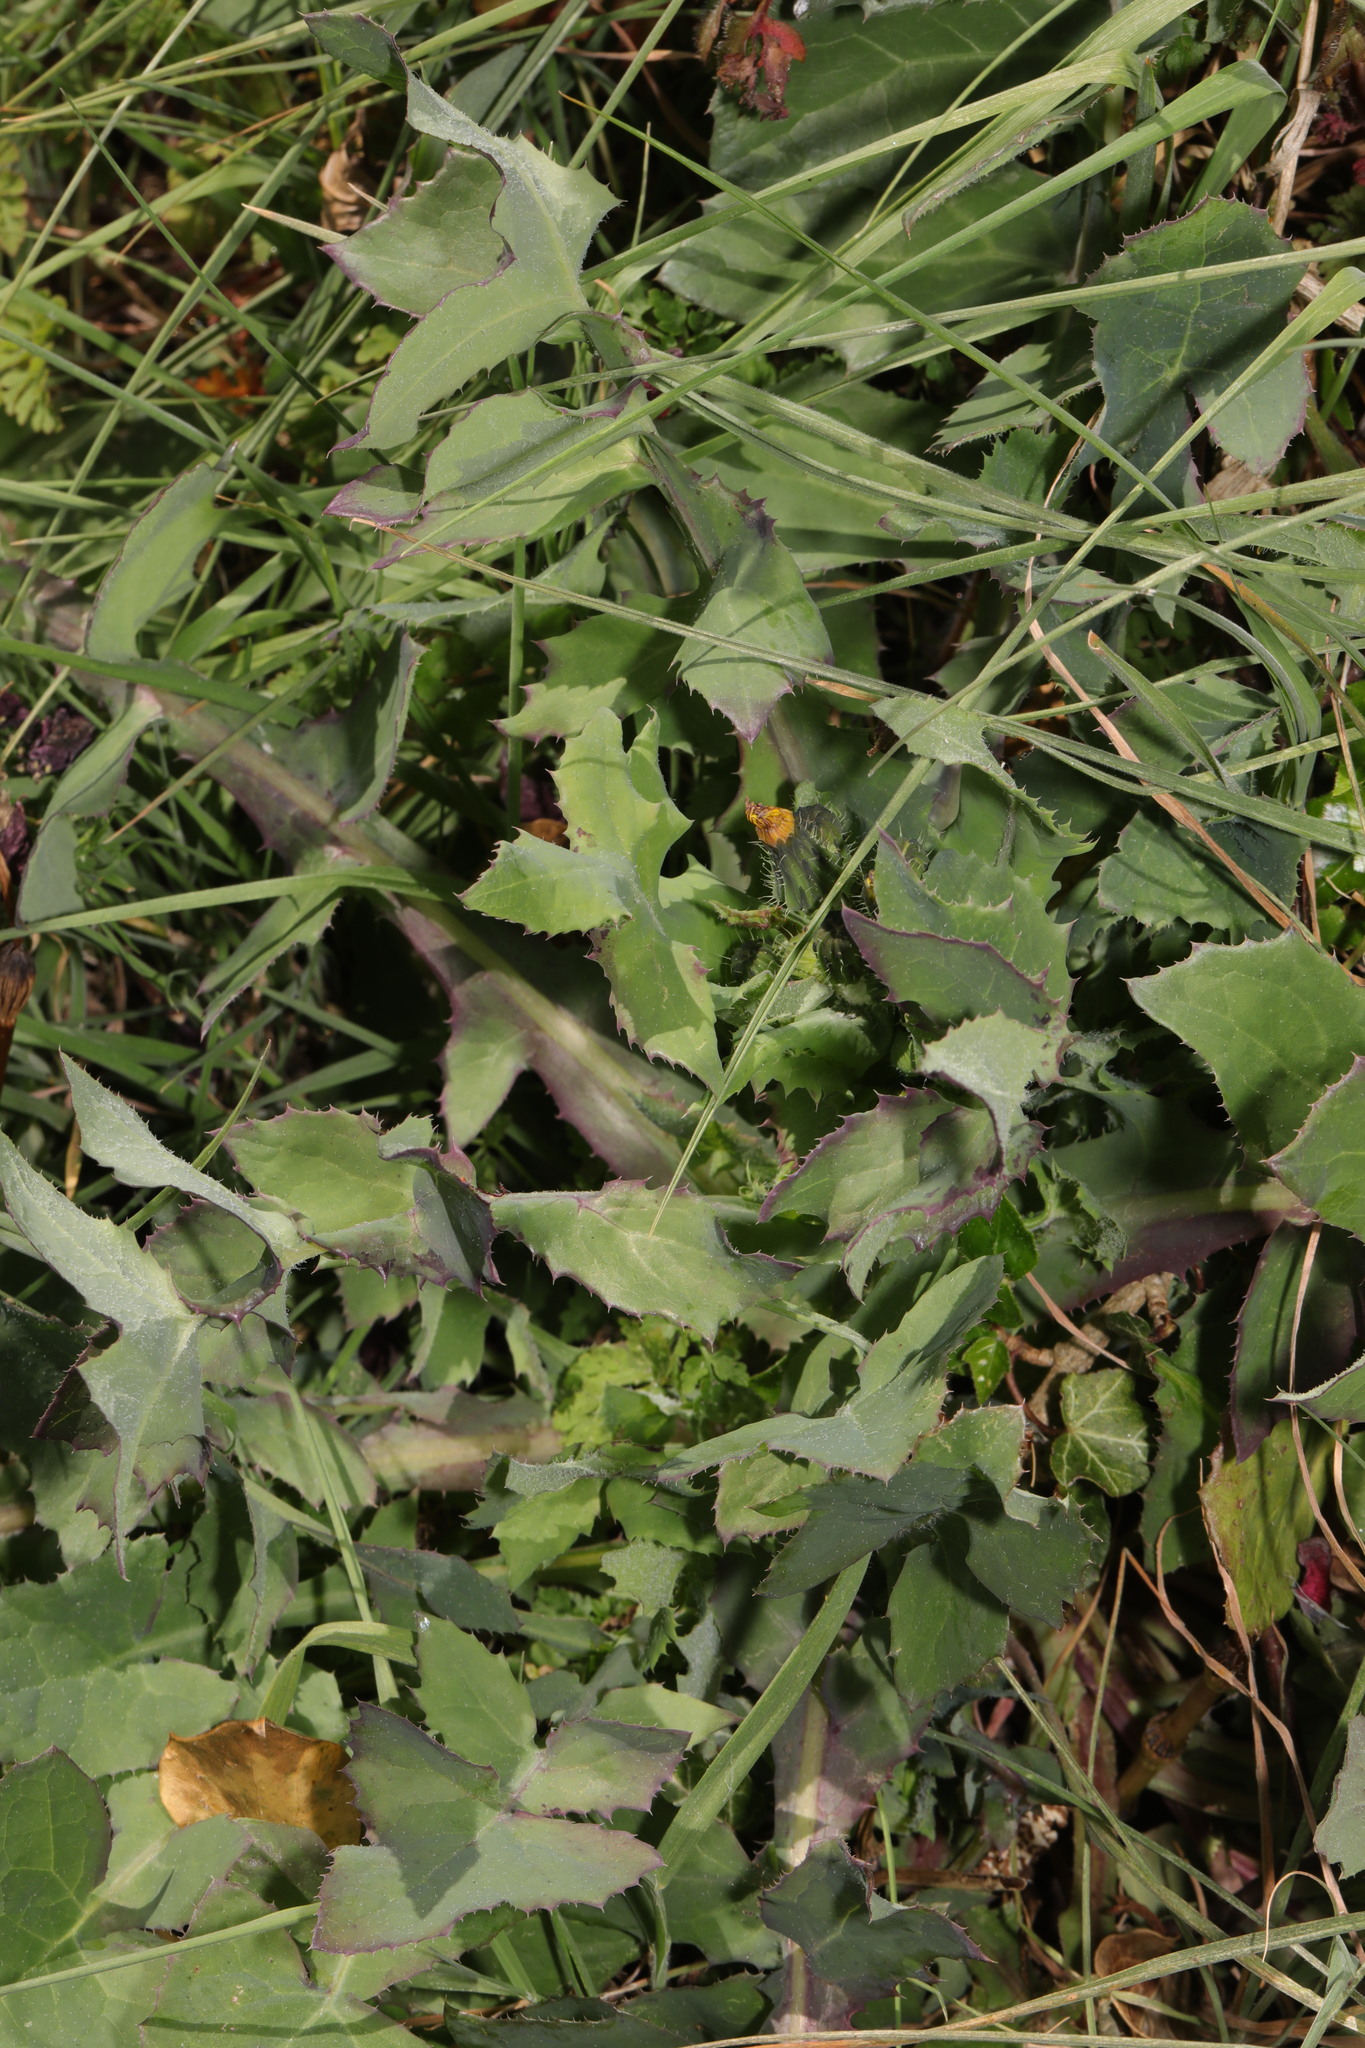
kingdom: Plantae
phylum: Tracheophyta
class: Magnoliopsida
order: Asterales
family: Asteraceae
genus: Sonchus
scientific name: Sonchus oleraceus
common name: Common sowthistle
